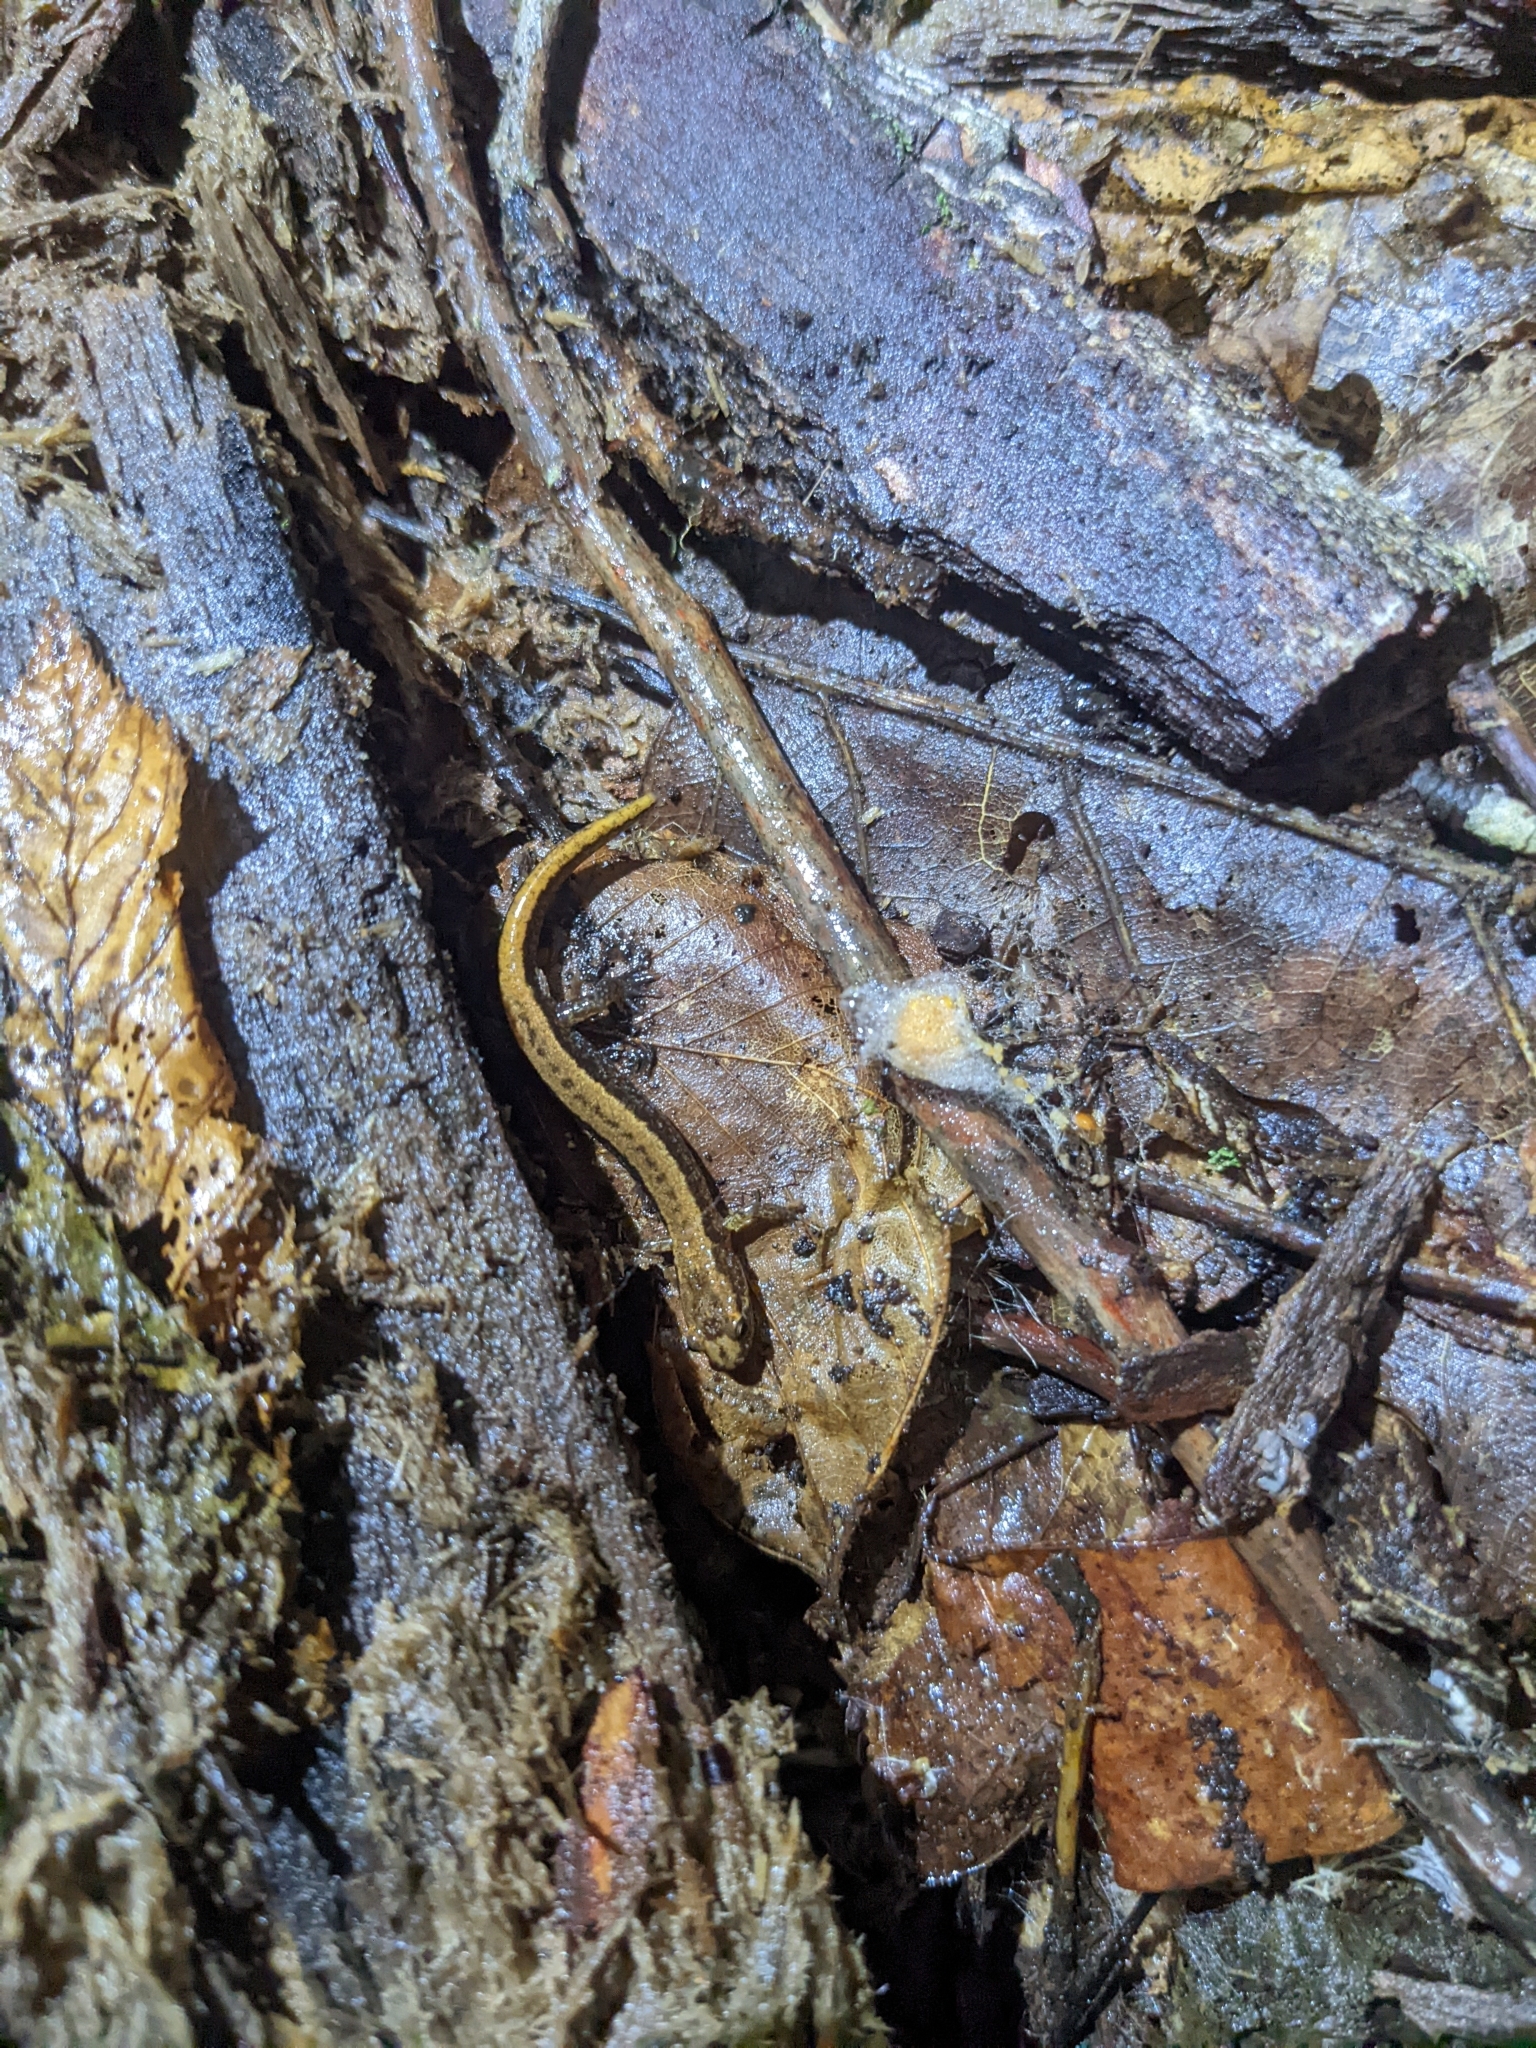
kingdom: Animalia
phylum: Chordata
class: Amphibia
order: Caudata
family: Plethodontidae
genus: Desmognathus
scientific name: Desmognathus ochrophaeus
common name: Allegheny mountain dusky salamander
